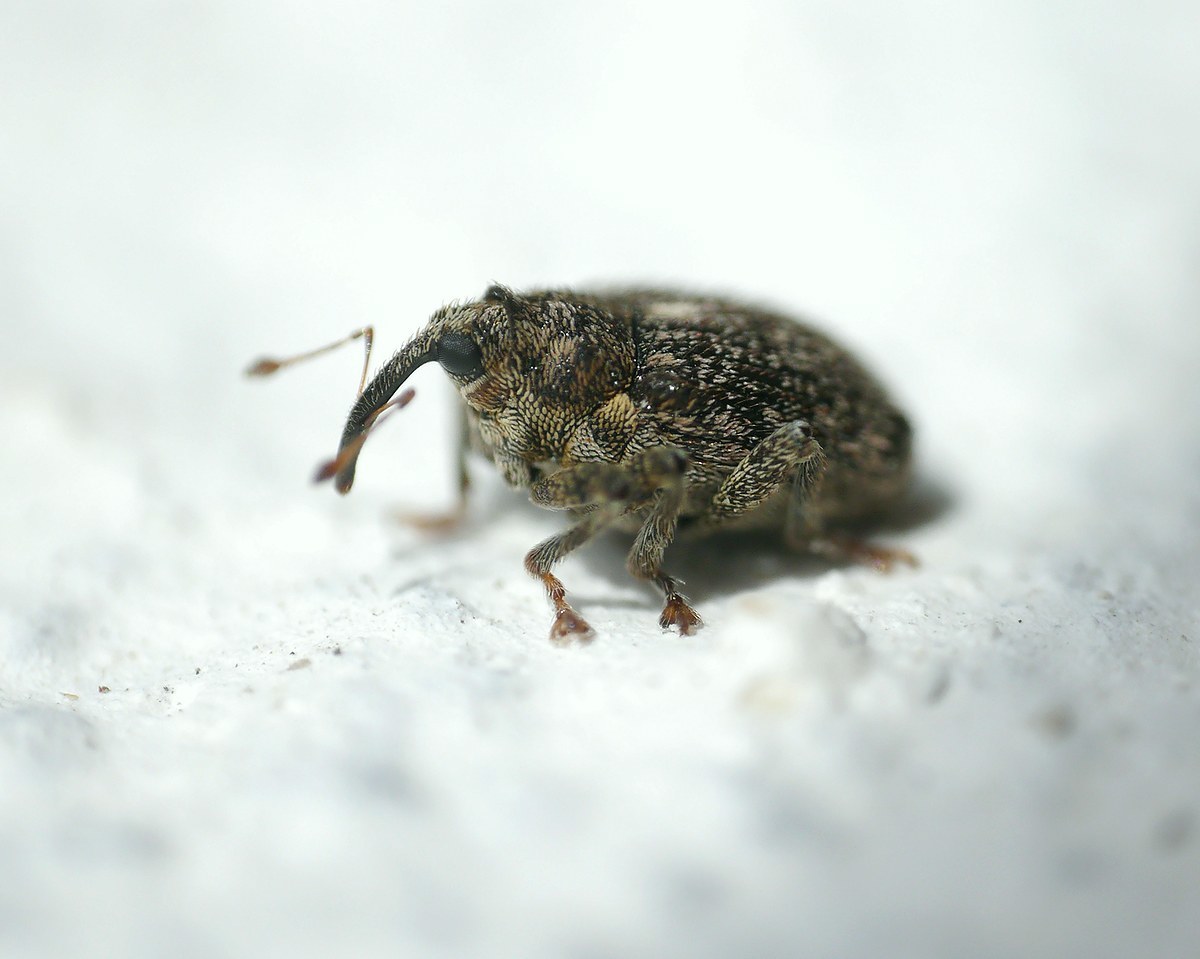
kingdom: Animalia
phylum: Arthropoda
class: Insecta
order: Coleoptera
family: Curculionidae
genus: Ceutorhynchus
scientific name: Ceutorhynchus pallidactylus
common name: Cabbage stem weavil
